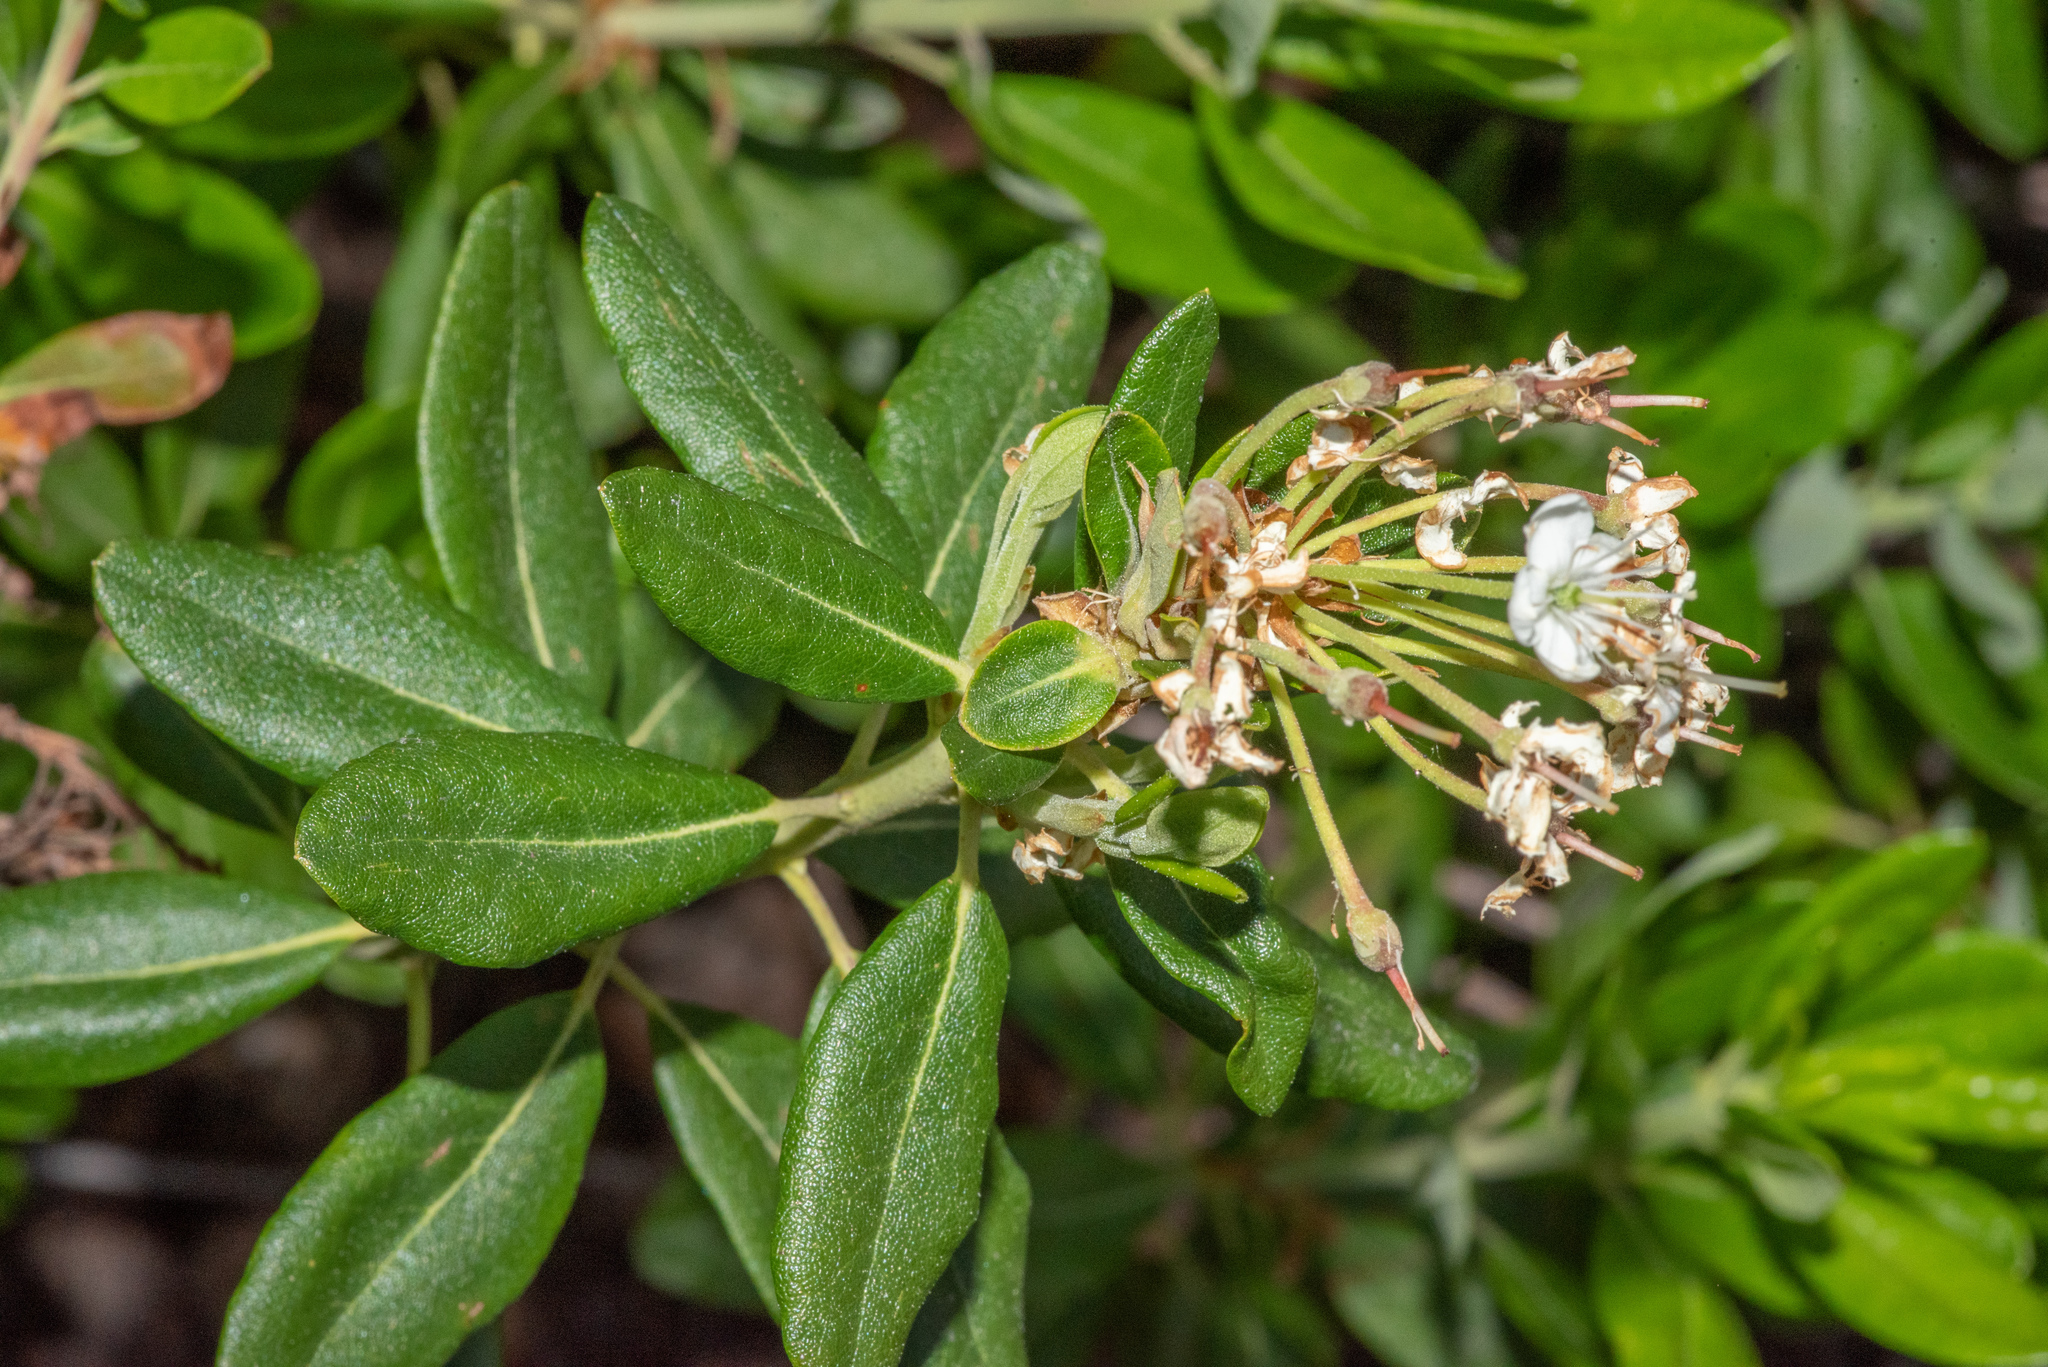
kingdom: Plantae
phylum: Tracheophyta
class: Magnoliopsida
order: Ericales
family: Ericaceae
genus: Rhododendron
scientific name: Rhododendron columbianum
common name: Western labrador tea
